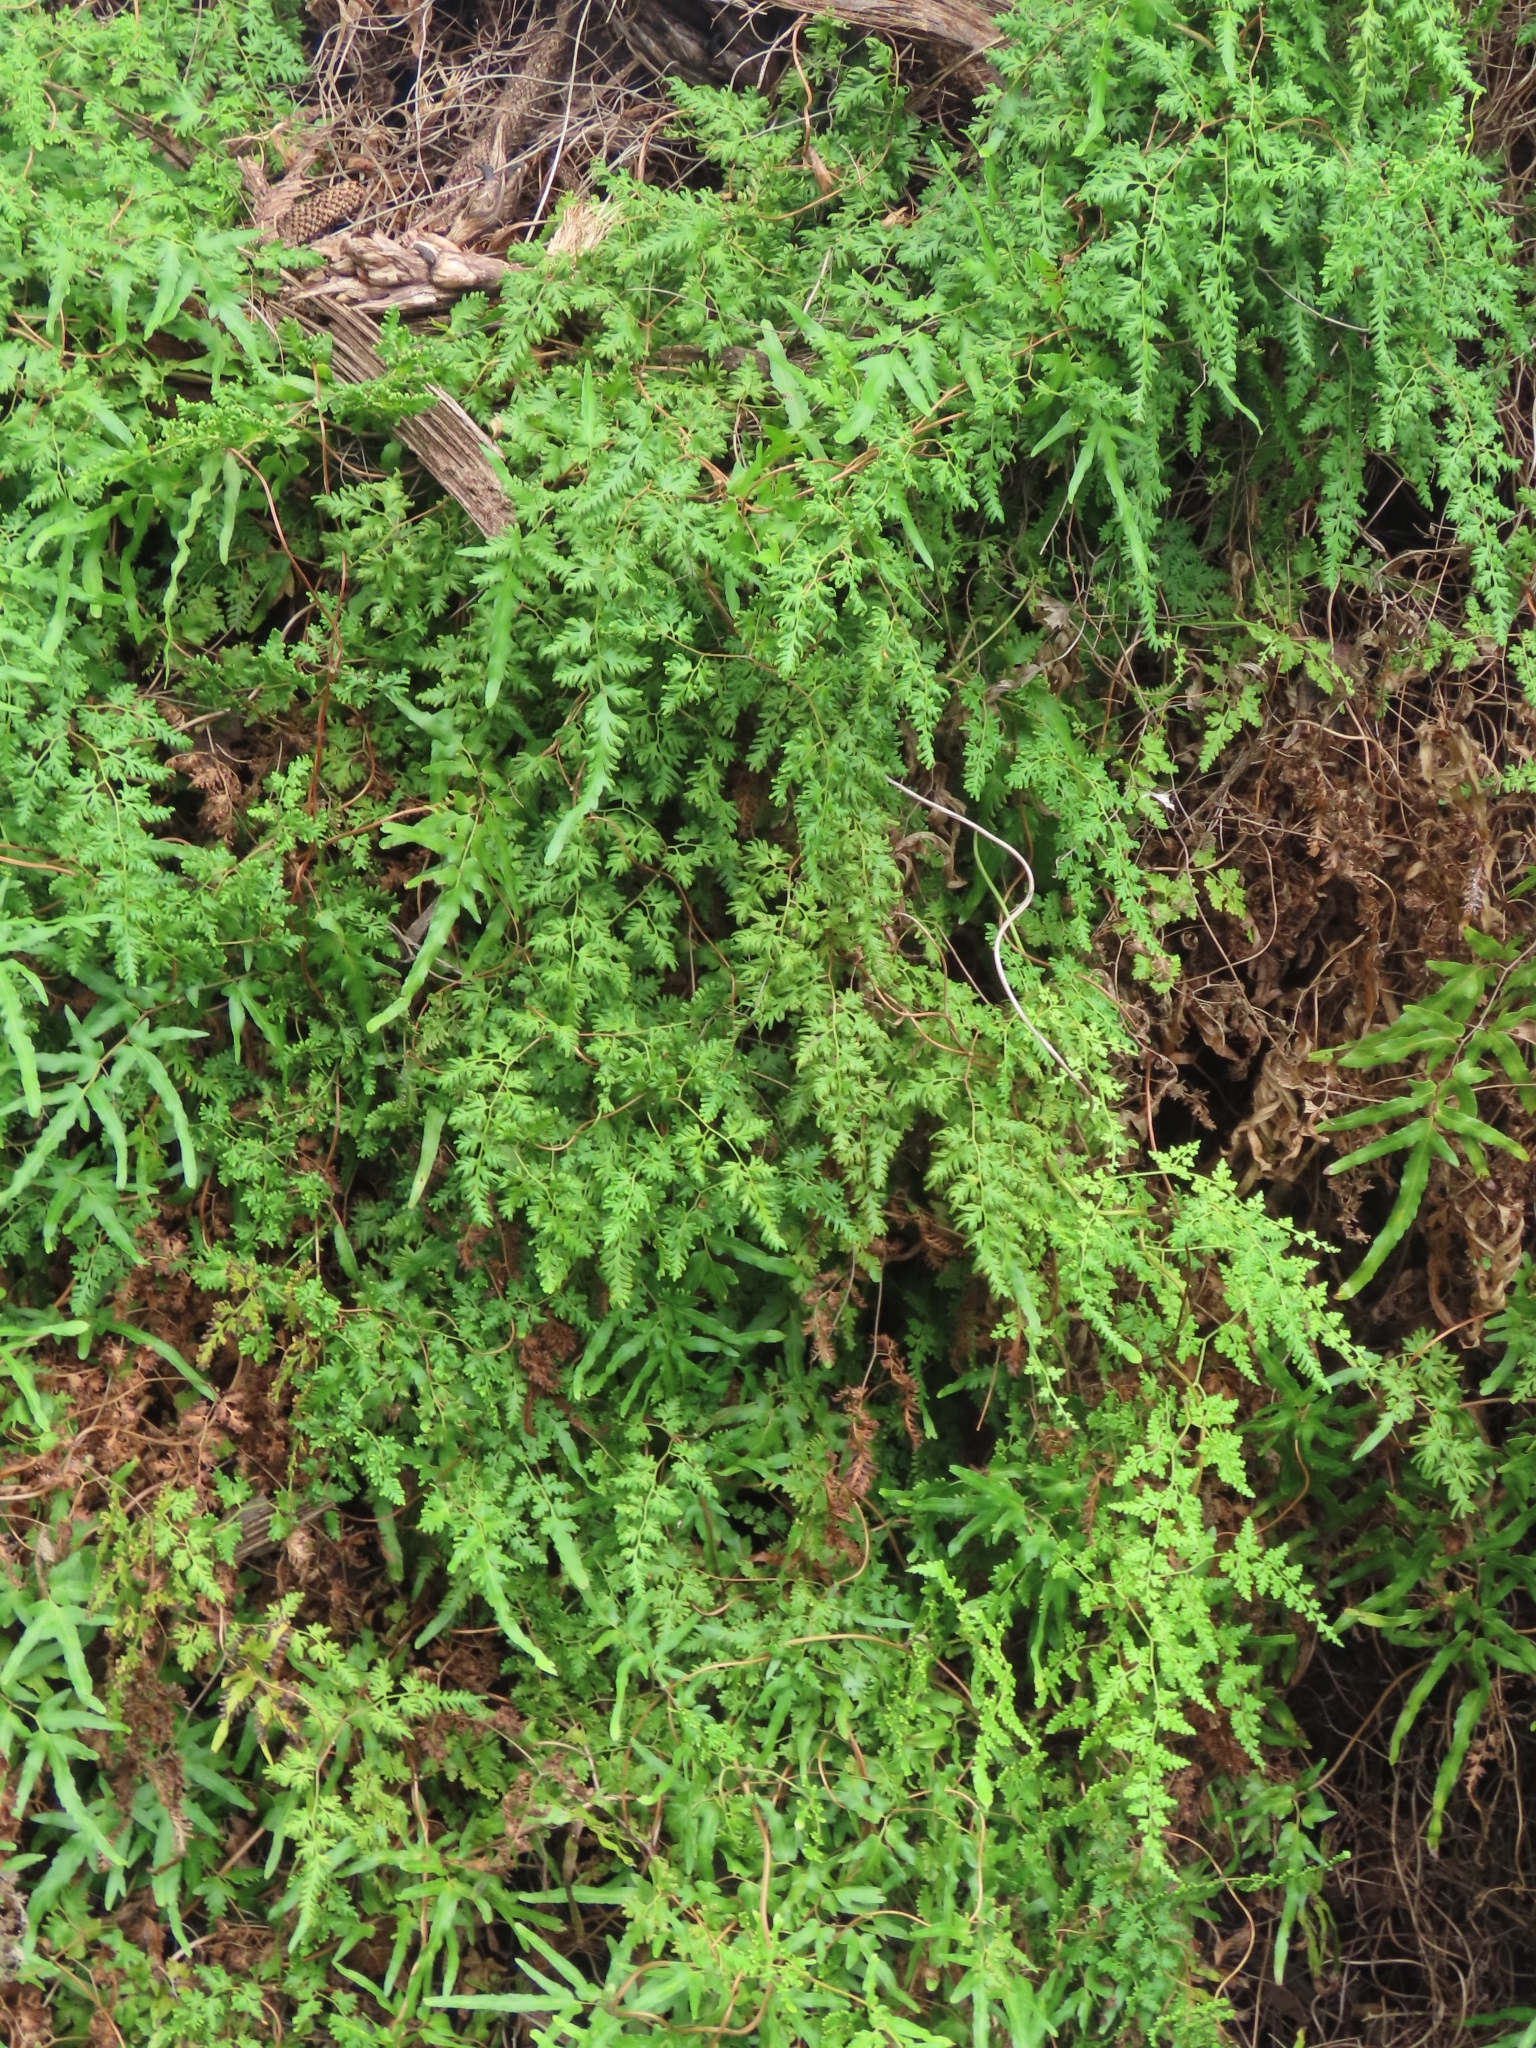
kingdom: Plantae
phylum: Tracheophyta
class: Polypodiopsida
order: Schizaeales
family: Lygodiaceae
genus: Lygodium
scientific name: Lygodium japonicum
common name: Japanese climbing fern
